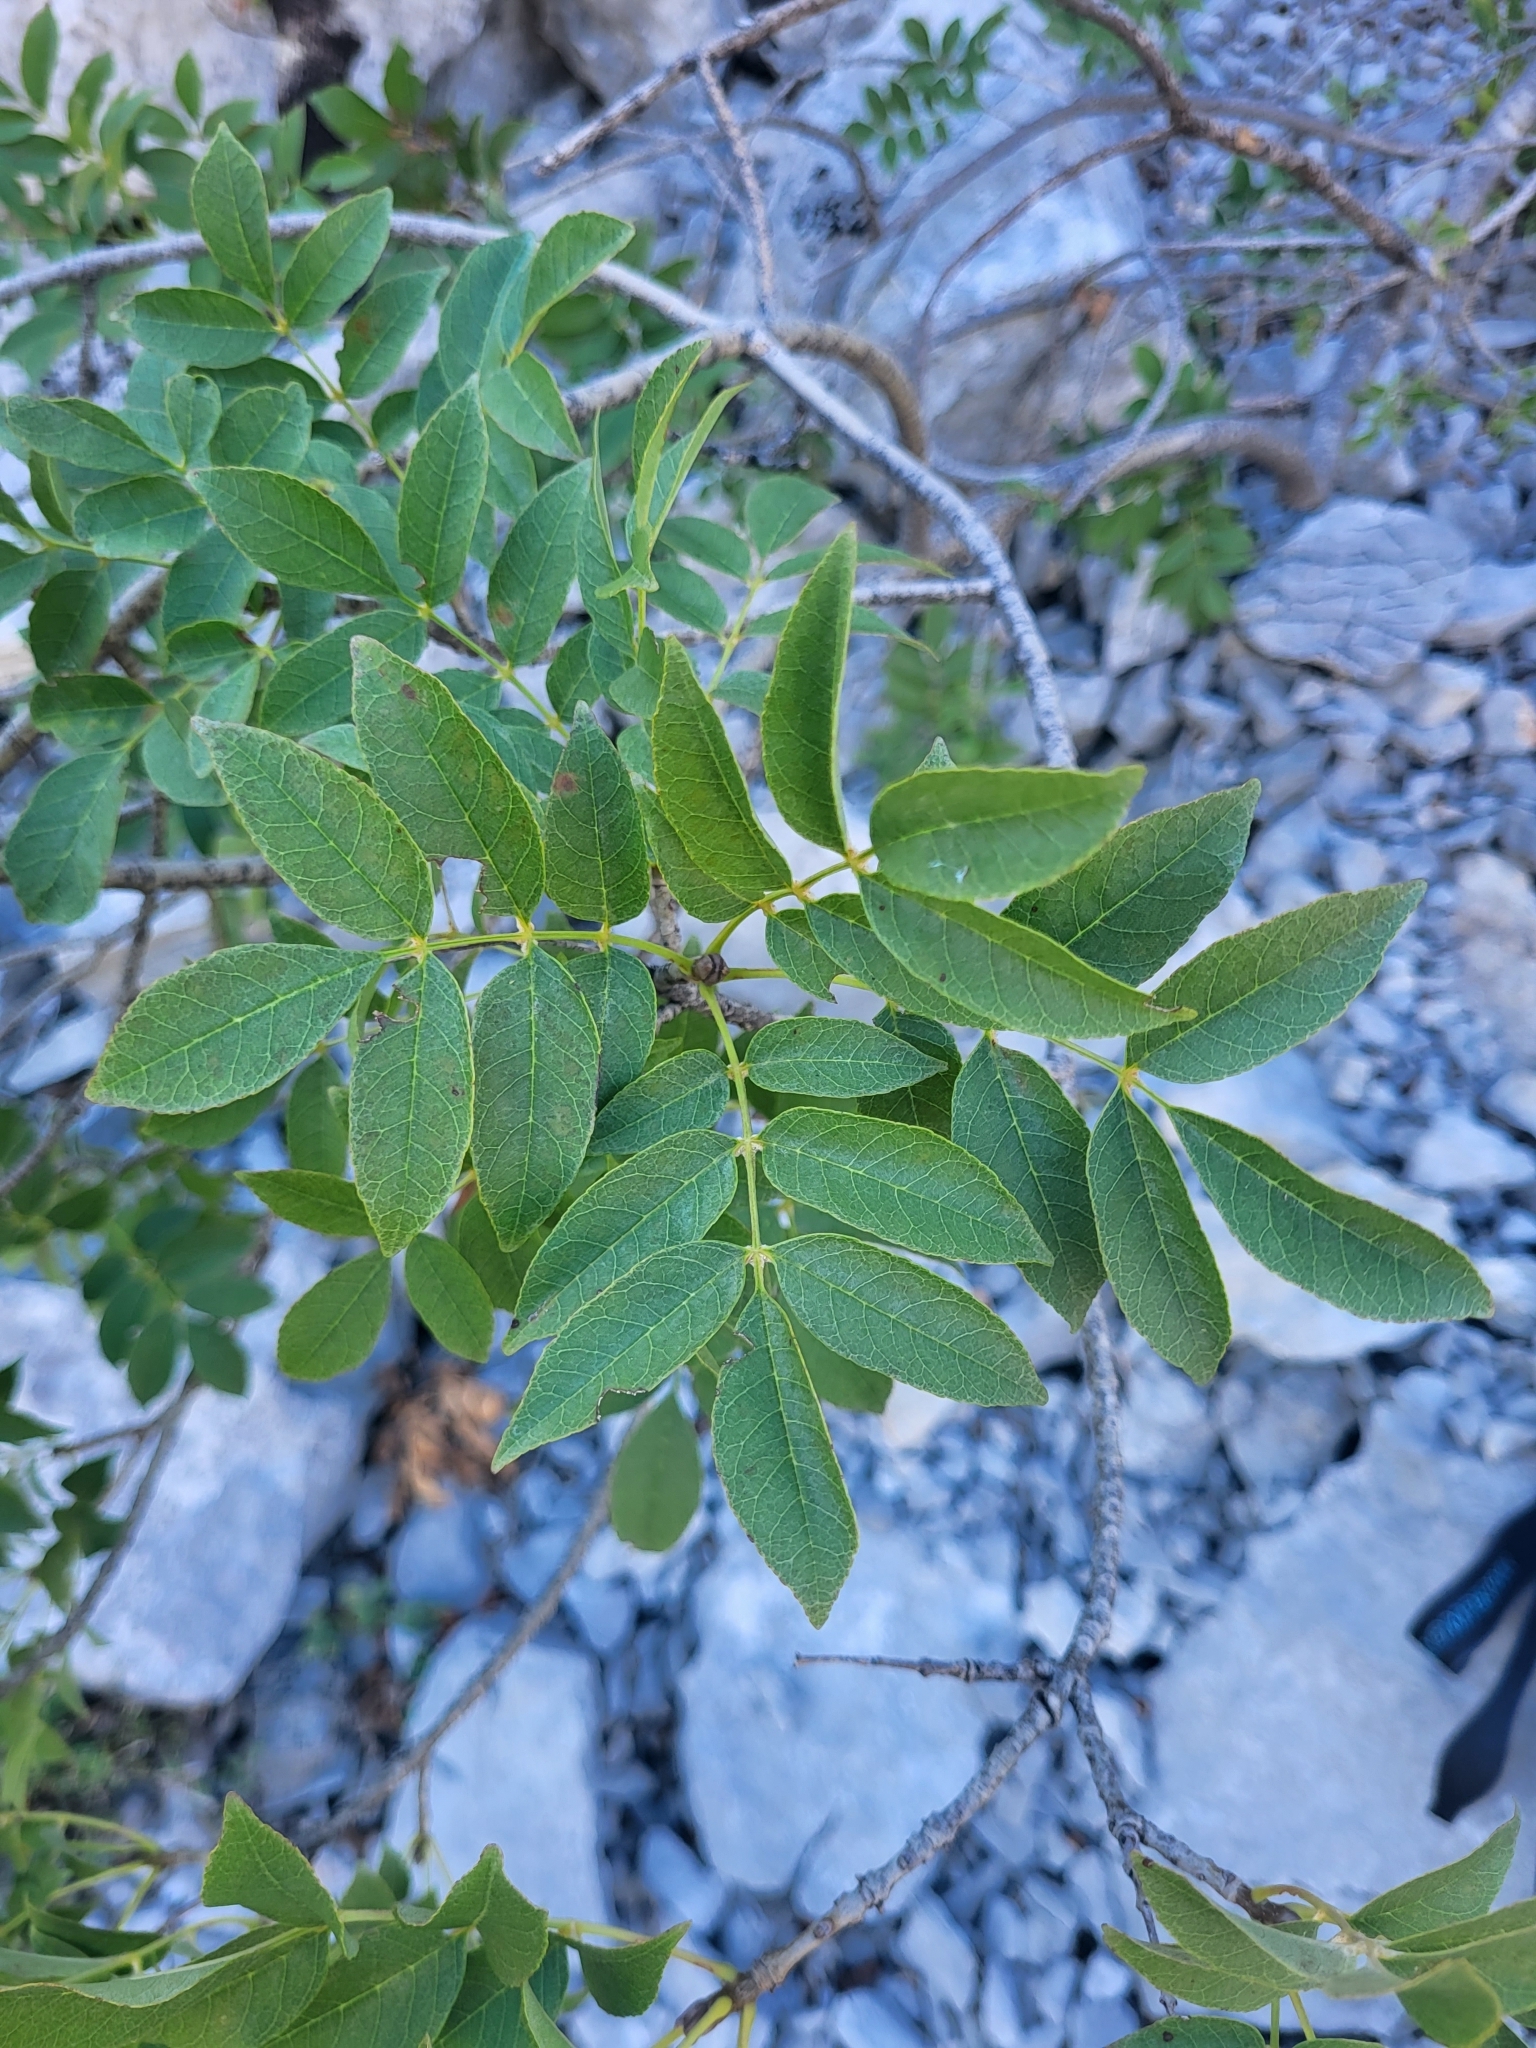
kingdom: Plantae
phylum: Tracheophyta
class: Magnoliopsida
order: Lamiales
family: Oleaceae
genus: Fraxinus
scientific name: Fraxinus ornus
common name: Manna ash
